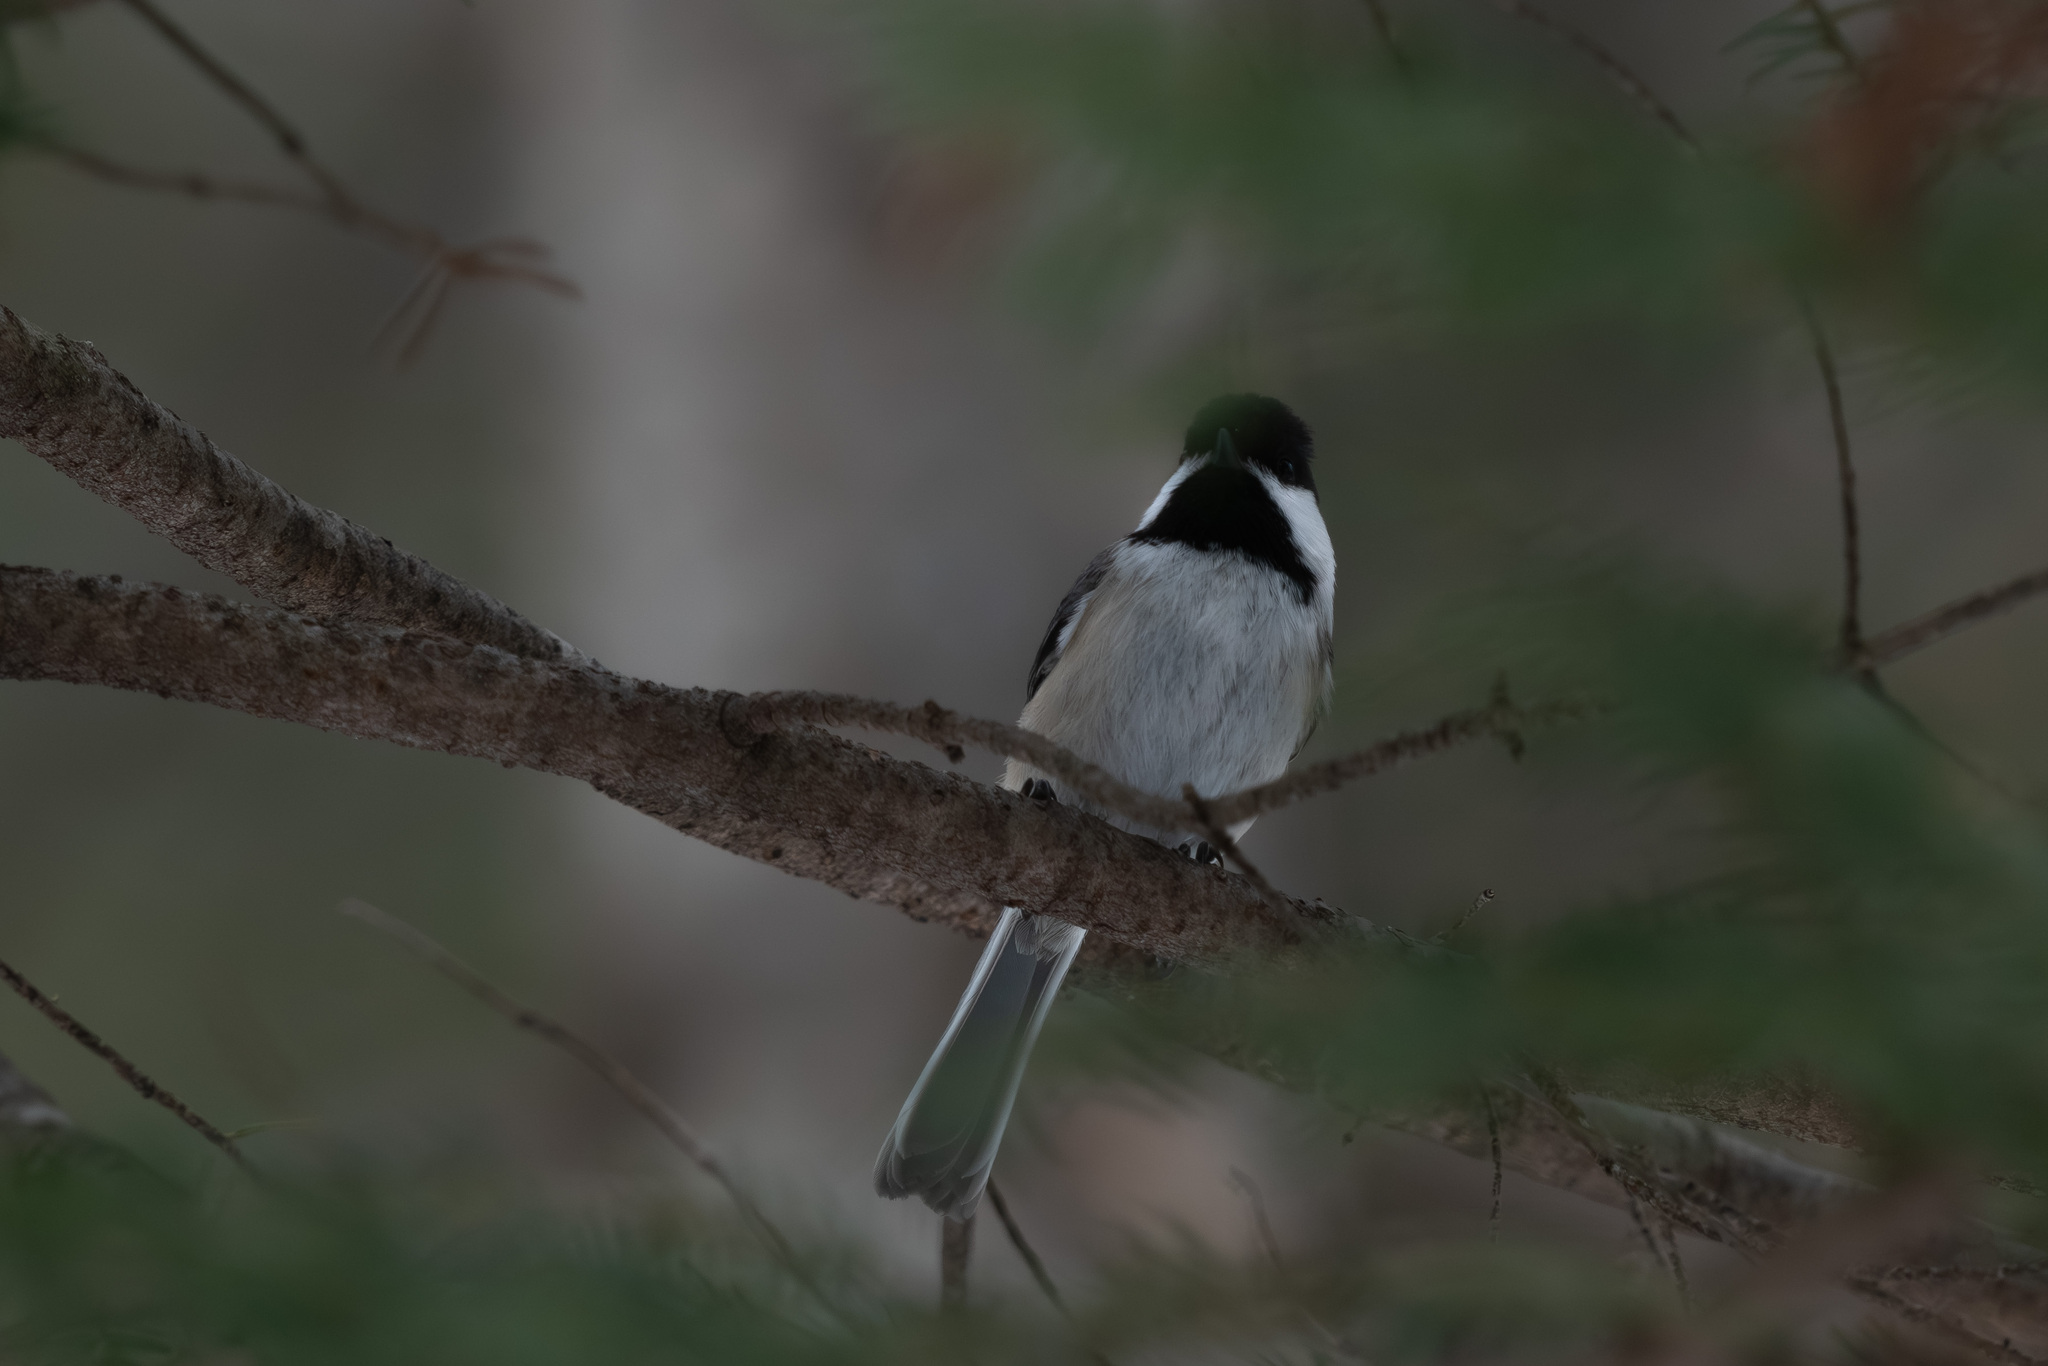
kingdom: Animalia
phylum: Chordata
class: Aves
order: Passeriformes
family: Paridae
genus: Poecile
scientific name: Poecile atricapillus
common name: Black-capped chickadee
